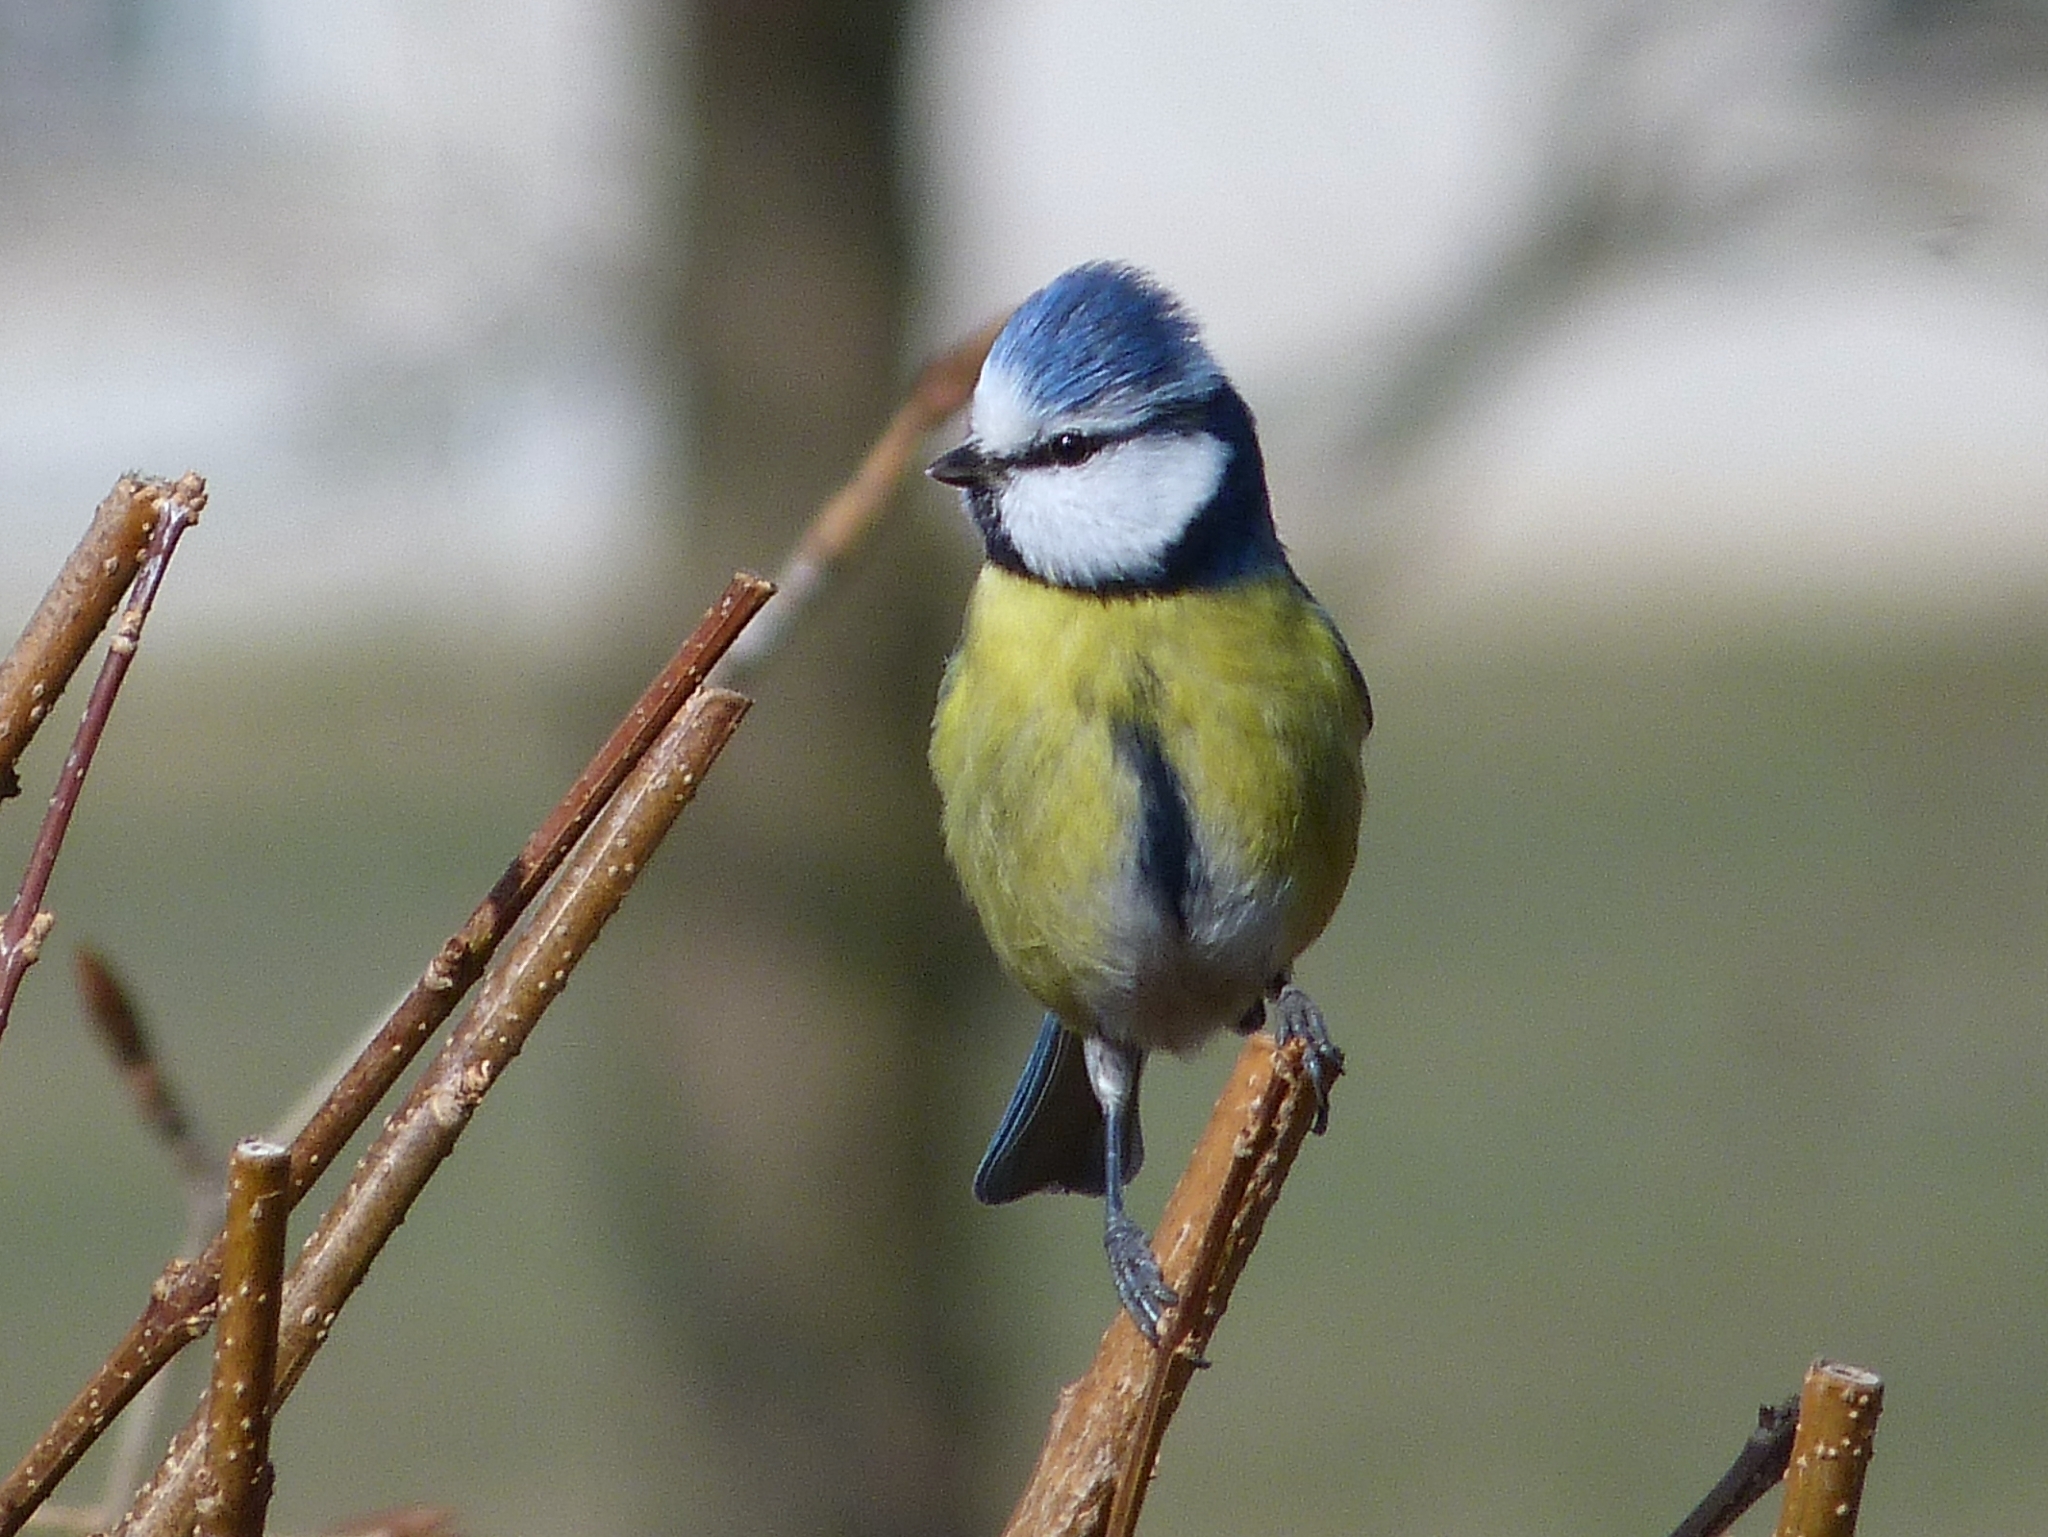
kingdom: Animalia
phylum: Chordata
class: Aves
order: Passeriformes
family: Paridae
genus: Cyanistes
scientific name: Cyanistes caeruleus
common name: Eurasian blue tit
